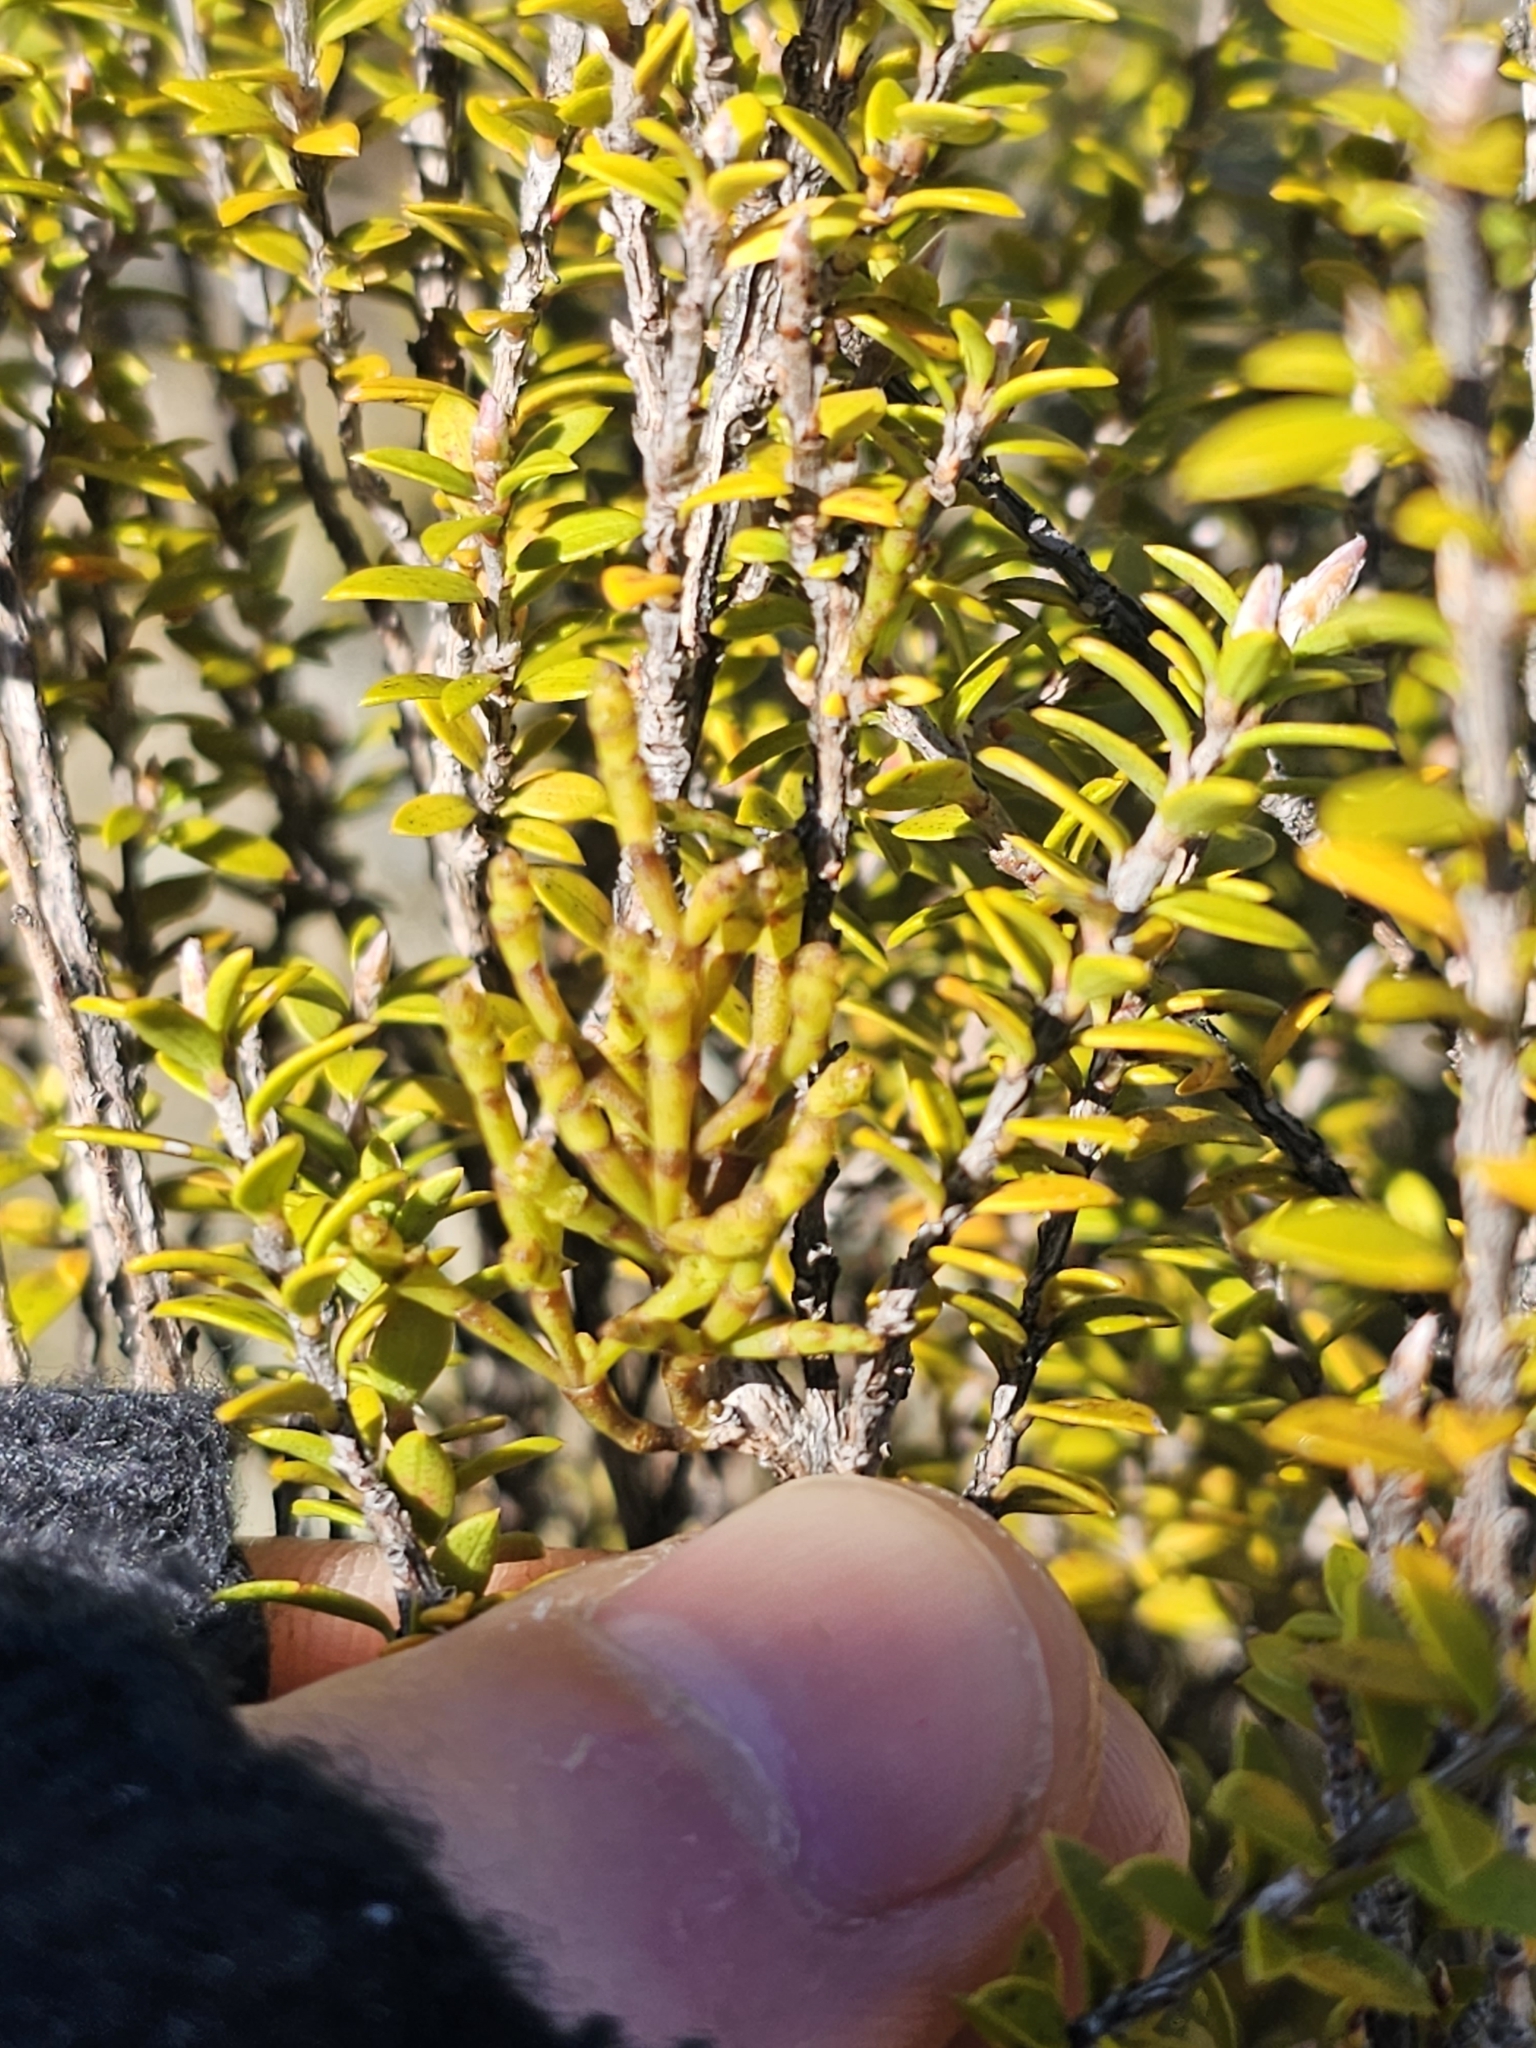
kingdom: Plantae
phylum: Tracheophyta
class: Magnoliopsida
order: Santalales
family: Viscaceae
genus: Korthalsella
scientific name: Korthalsella salicornioides
